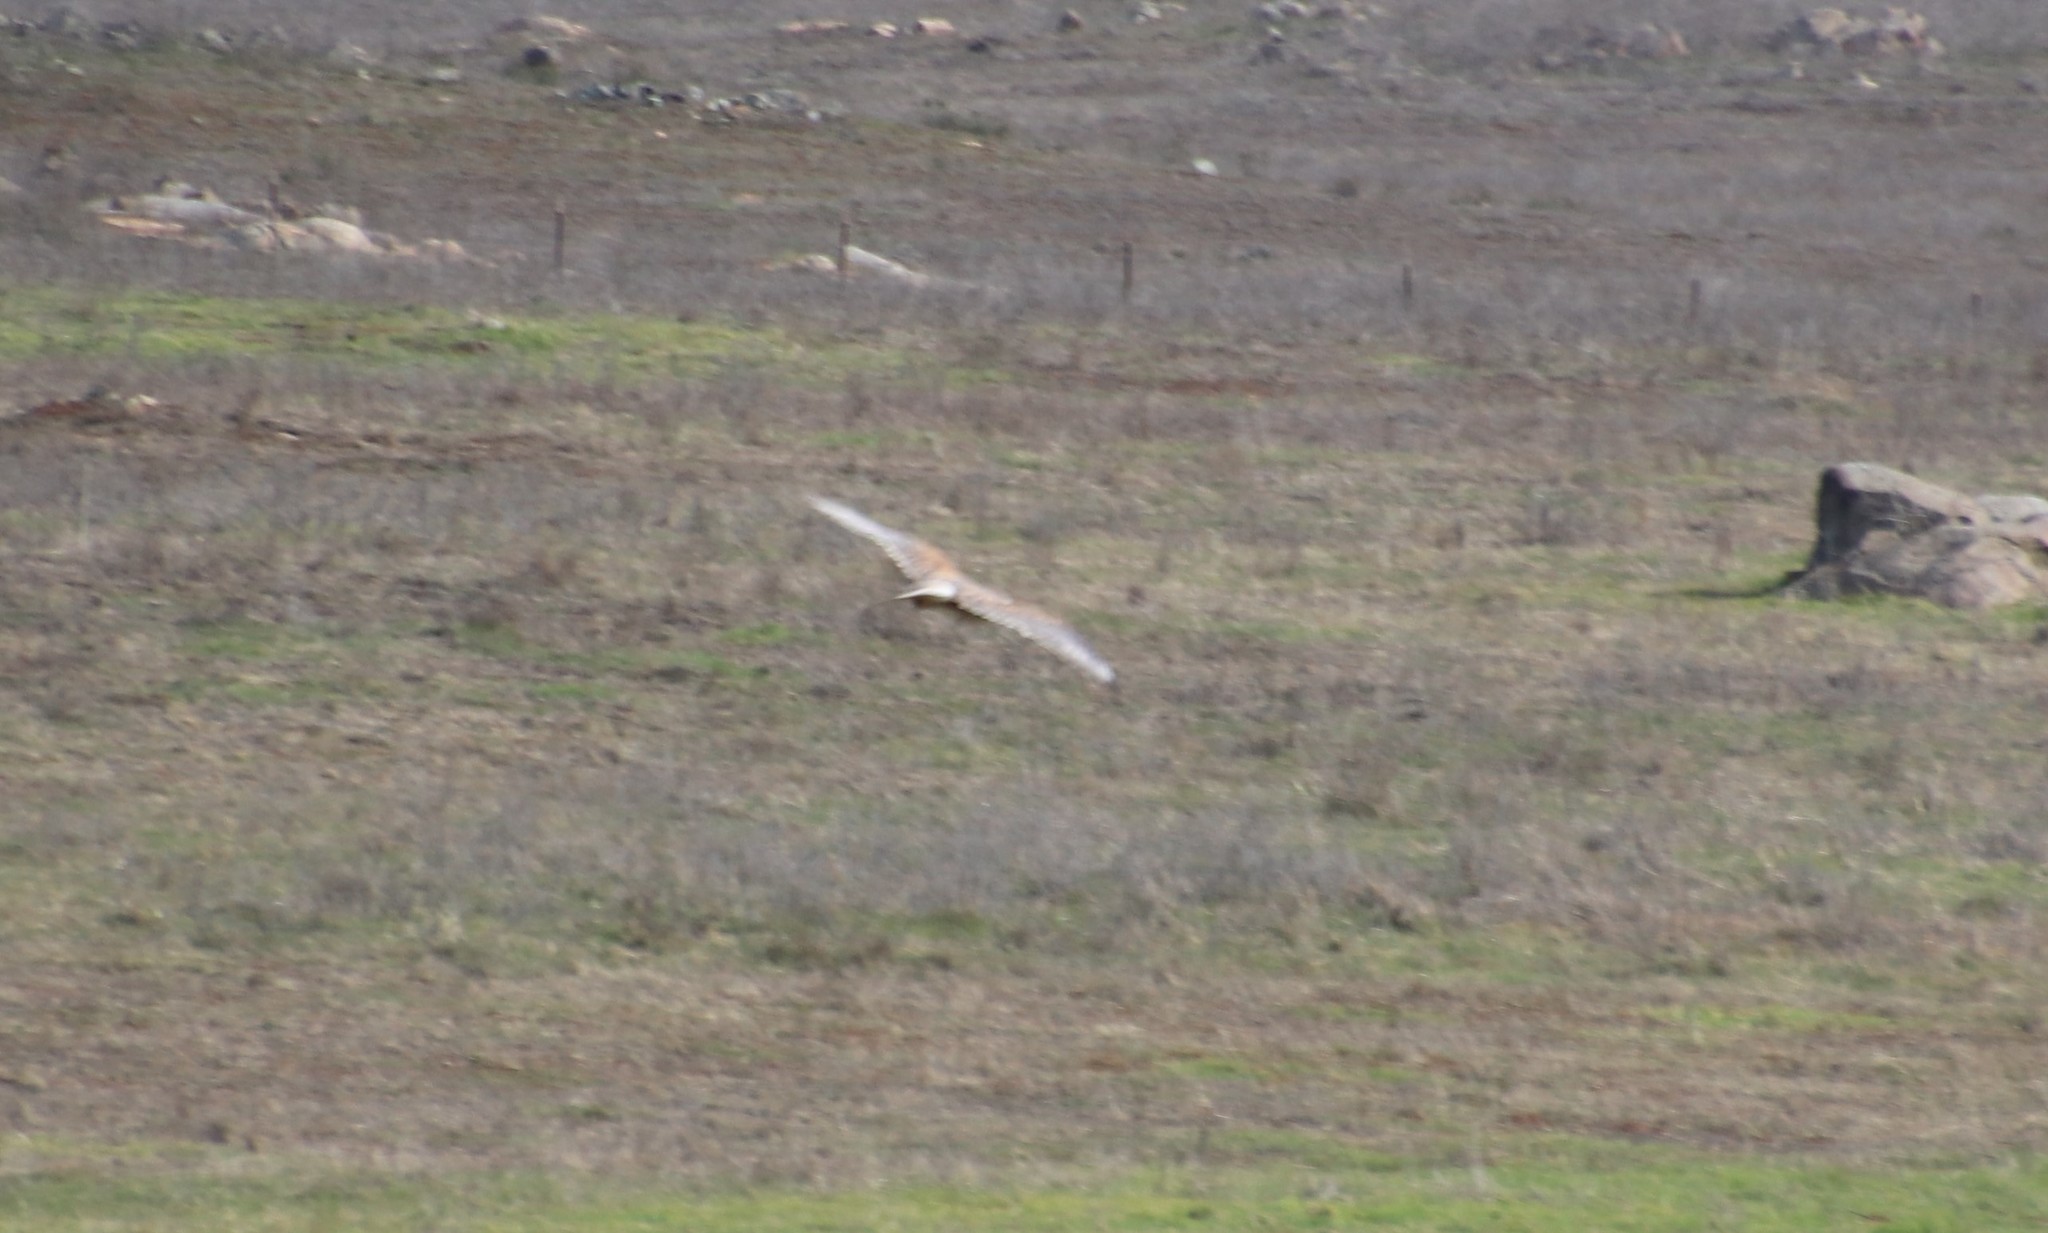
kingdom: Animalia
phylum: Chordata
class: Aves
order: Accipitriformes
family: Accipitridae
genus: Buteo
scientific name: Buteo regalis
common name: Ferruginous hawk
